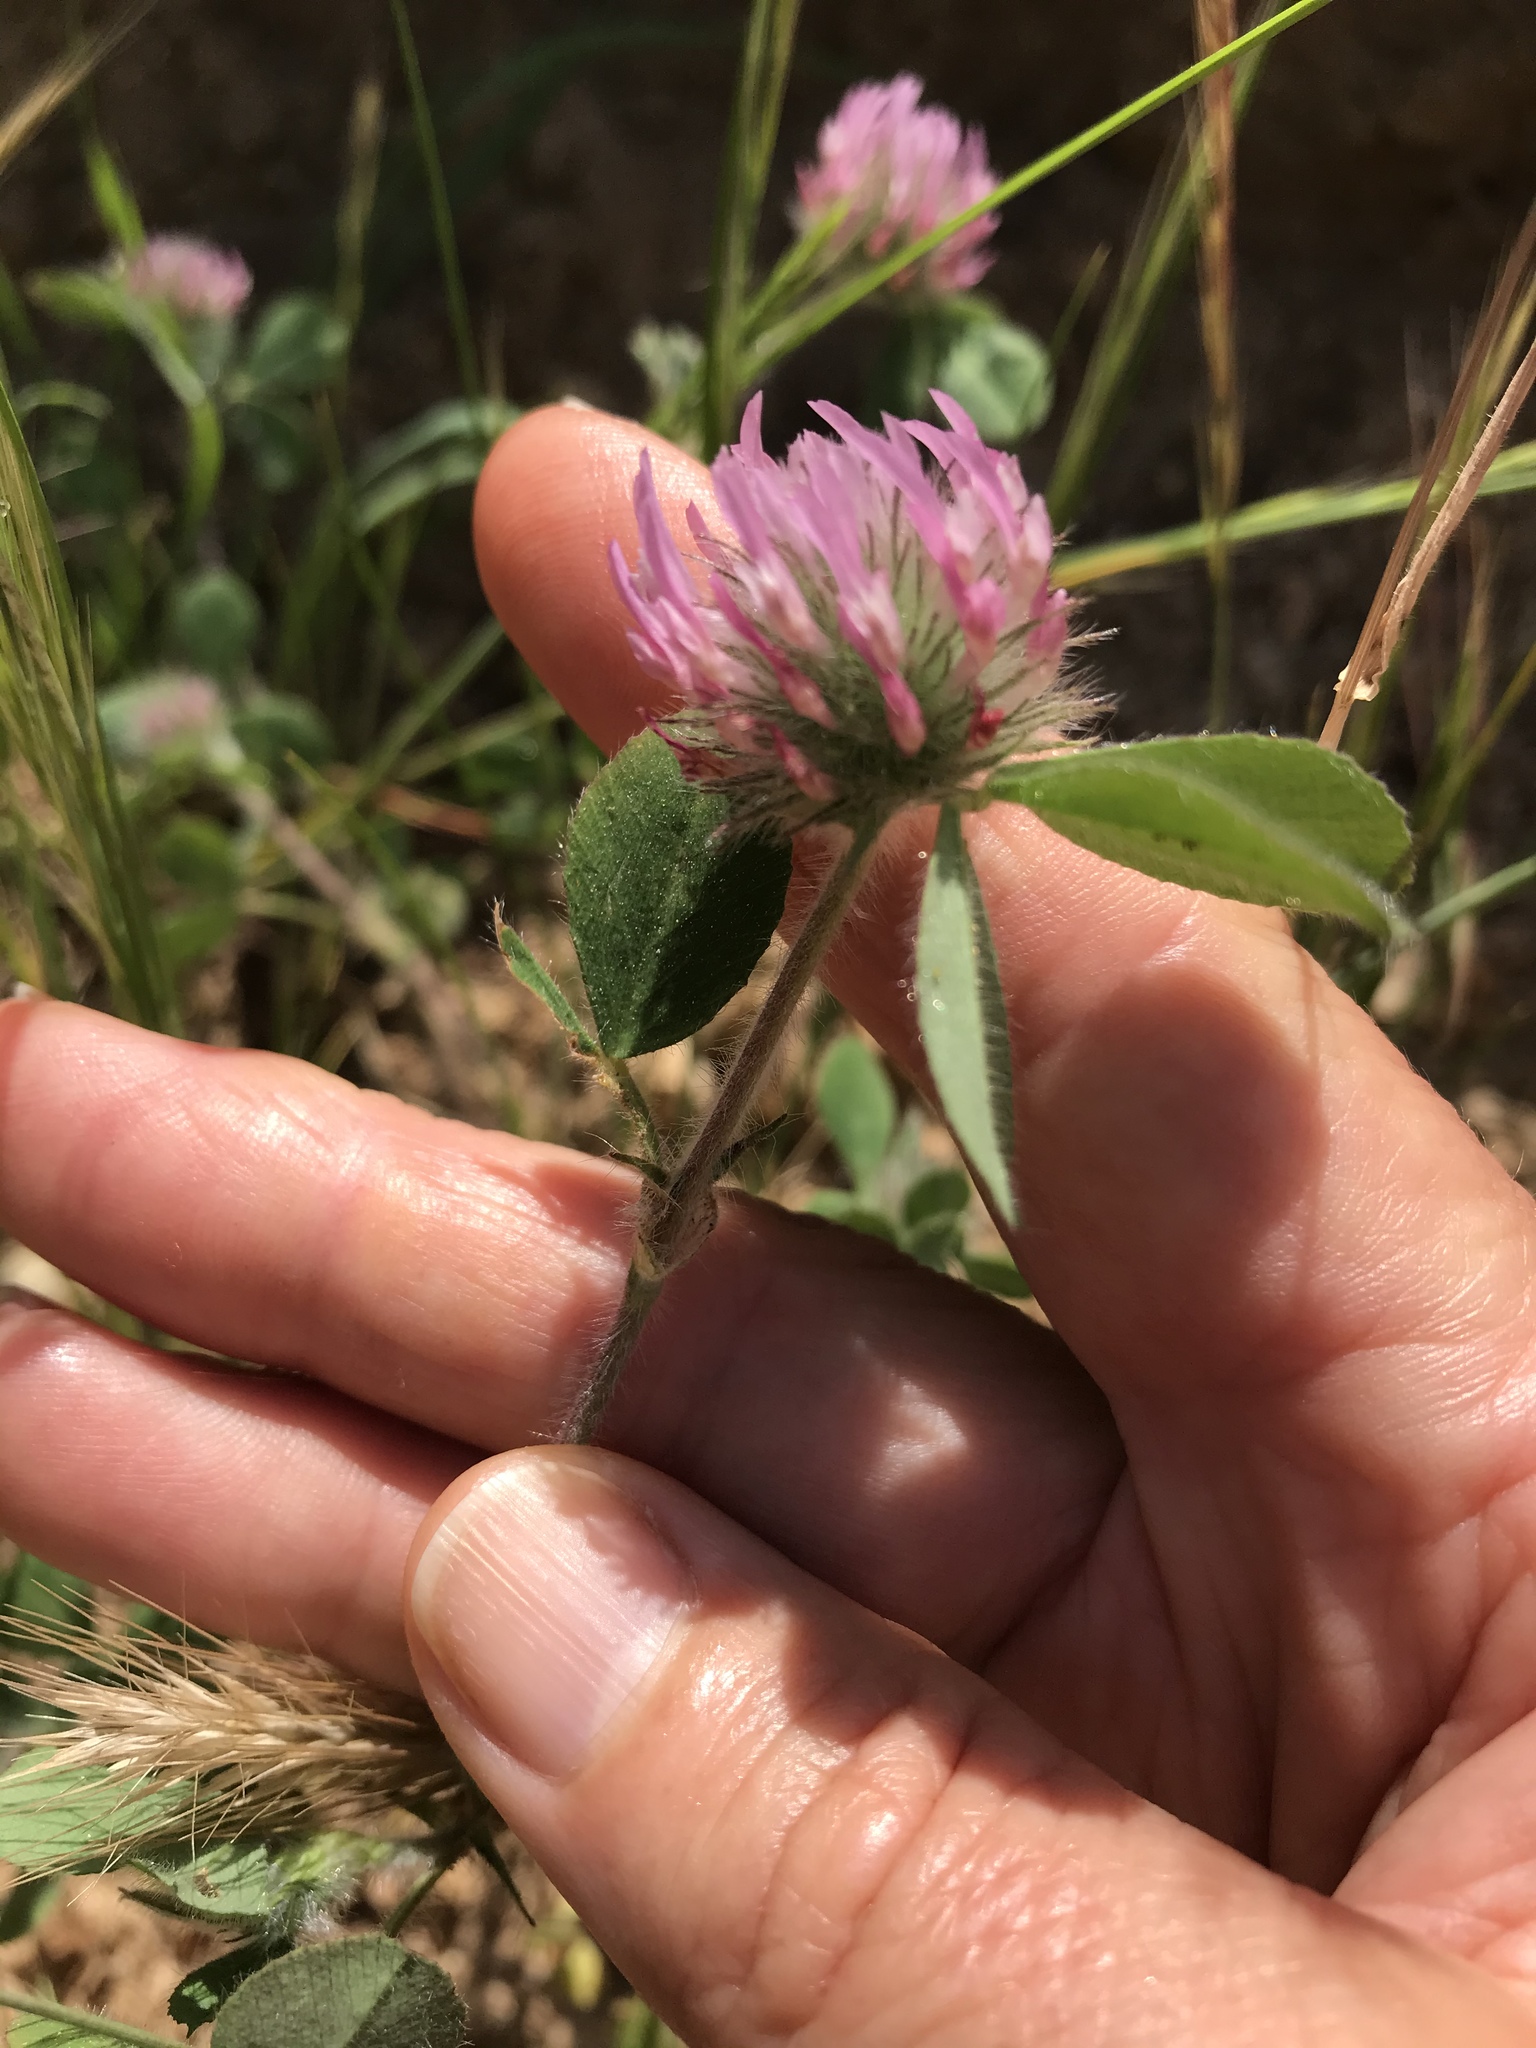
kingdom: Plantae
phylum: Tracheophyta
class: Magnoliopsida
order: Fabales
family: Fabaceae
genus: Trifolium
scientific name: Trifolium hirtum
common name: Rose clover
